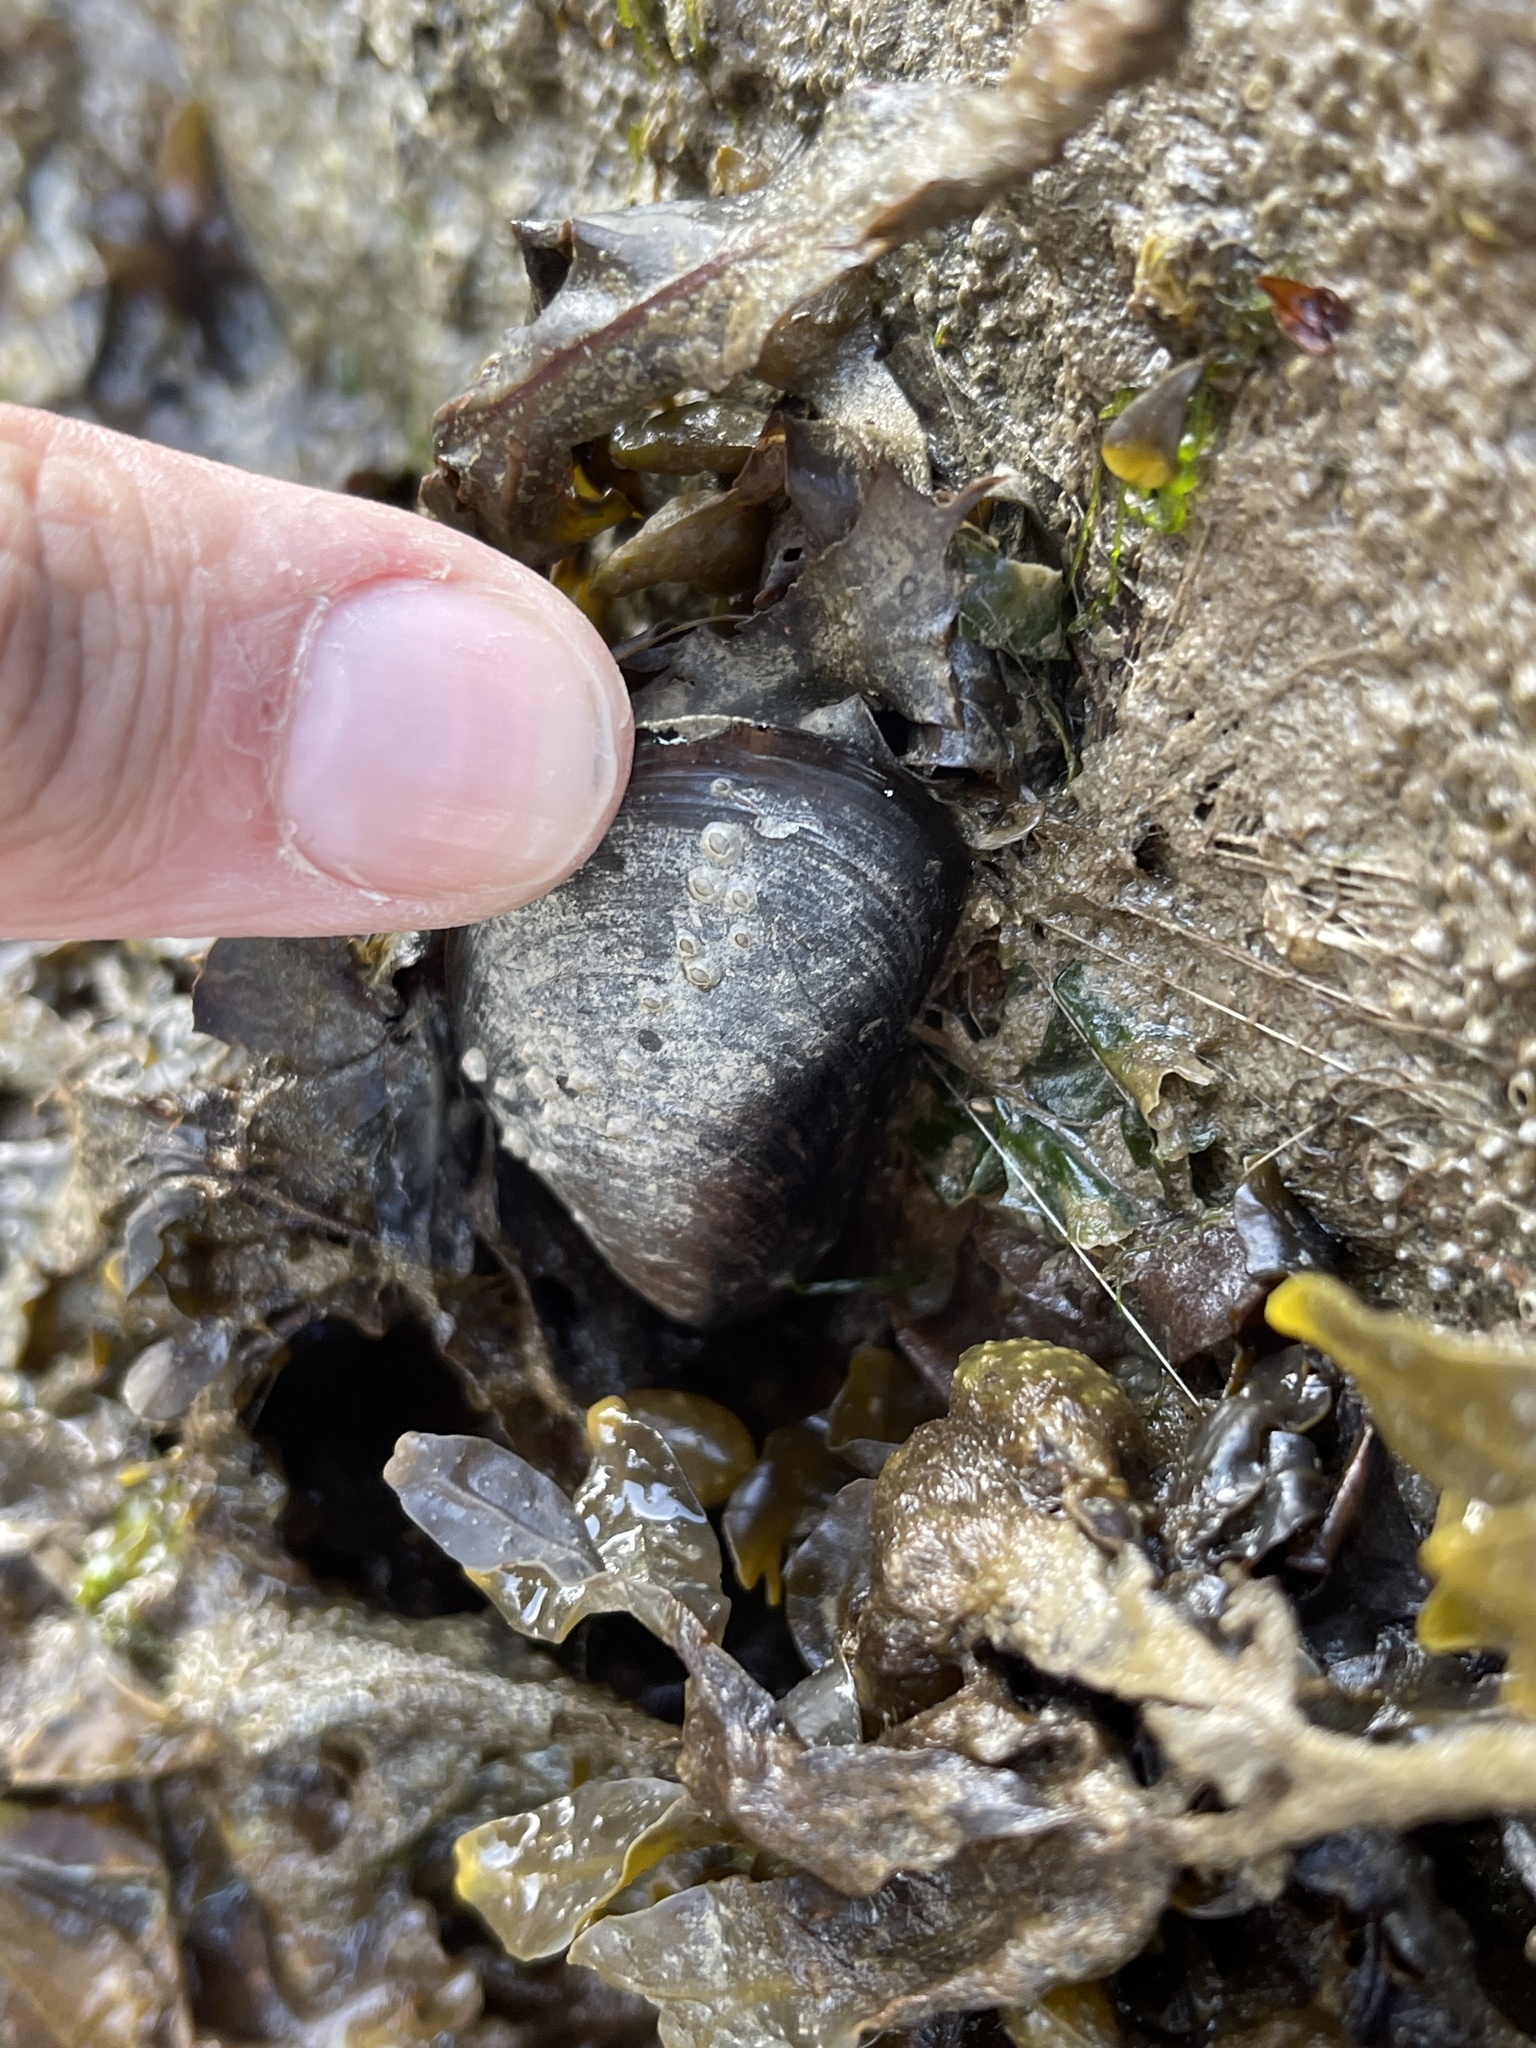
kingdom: Animalia
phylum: Mollusca
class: Bivalvia
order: Mytilida
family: Mytilidae
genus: Mytilus
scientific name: Mytilus edulis
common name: Blue mussel
